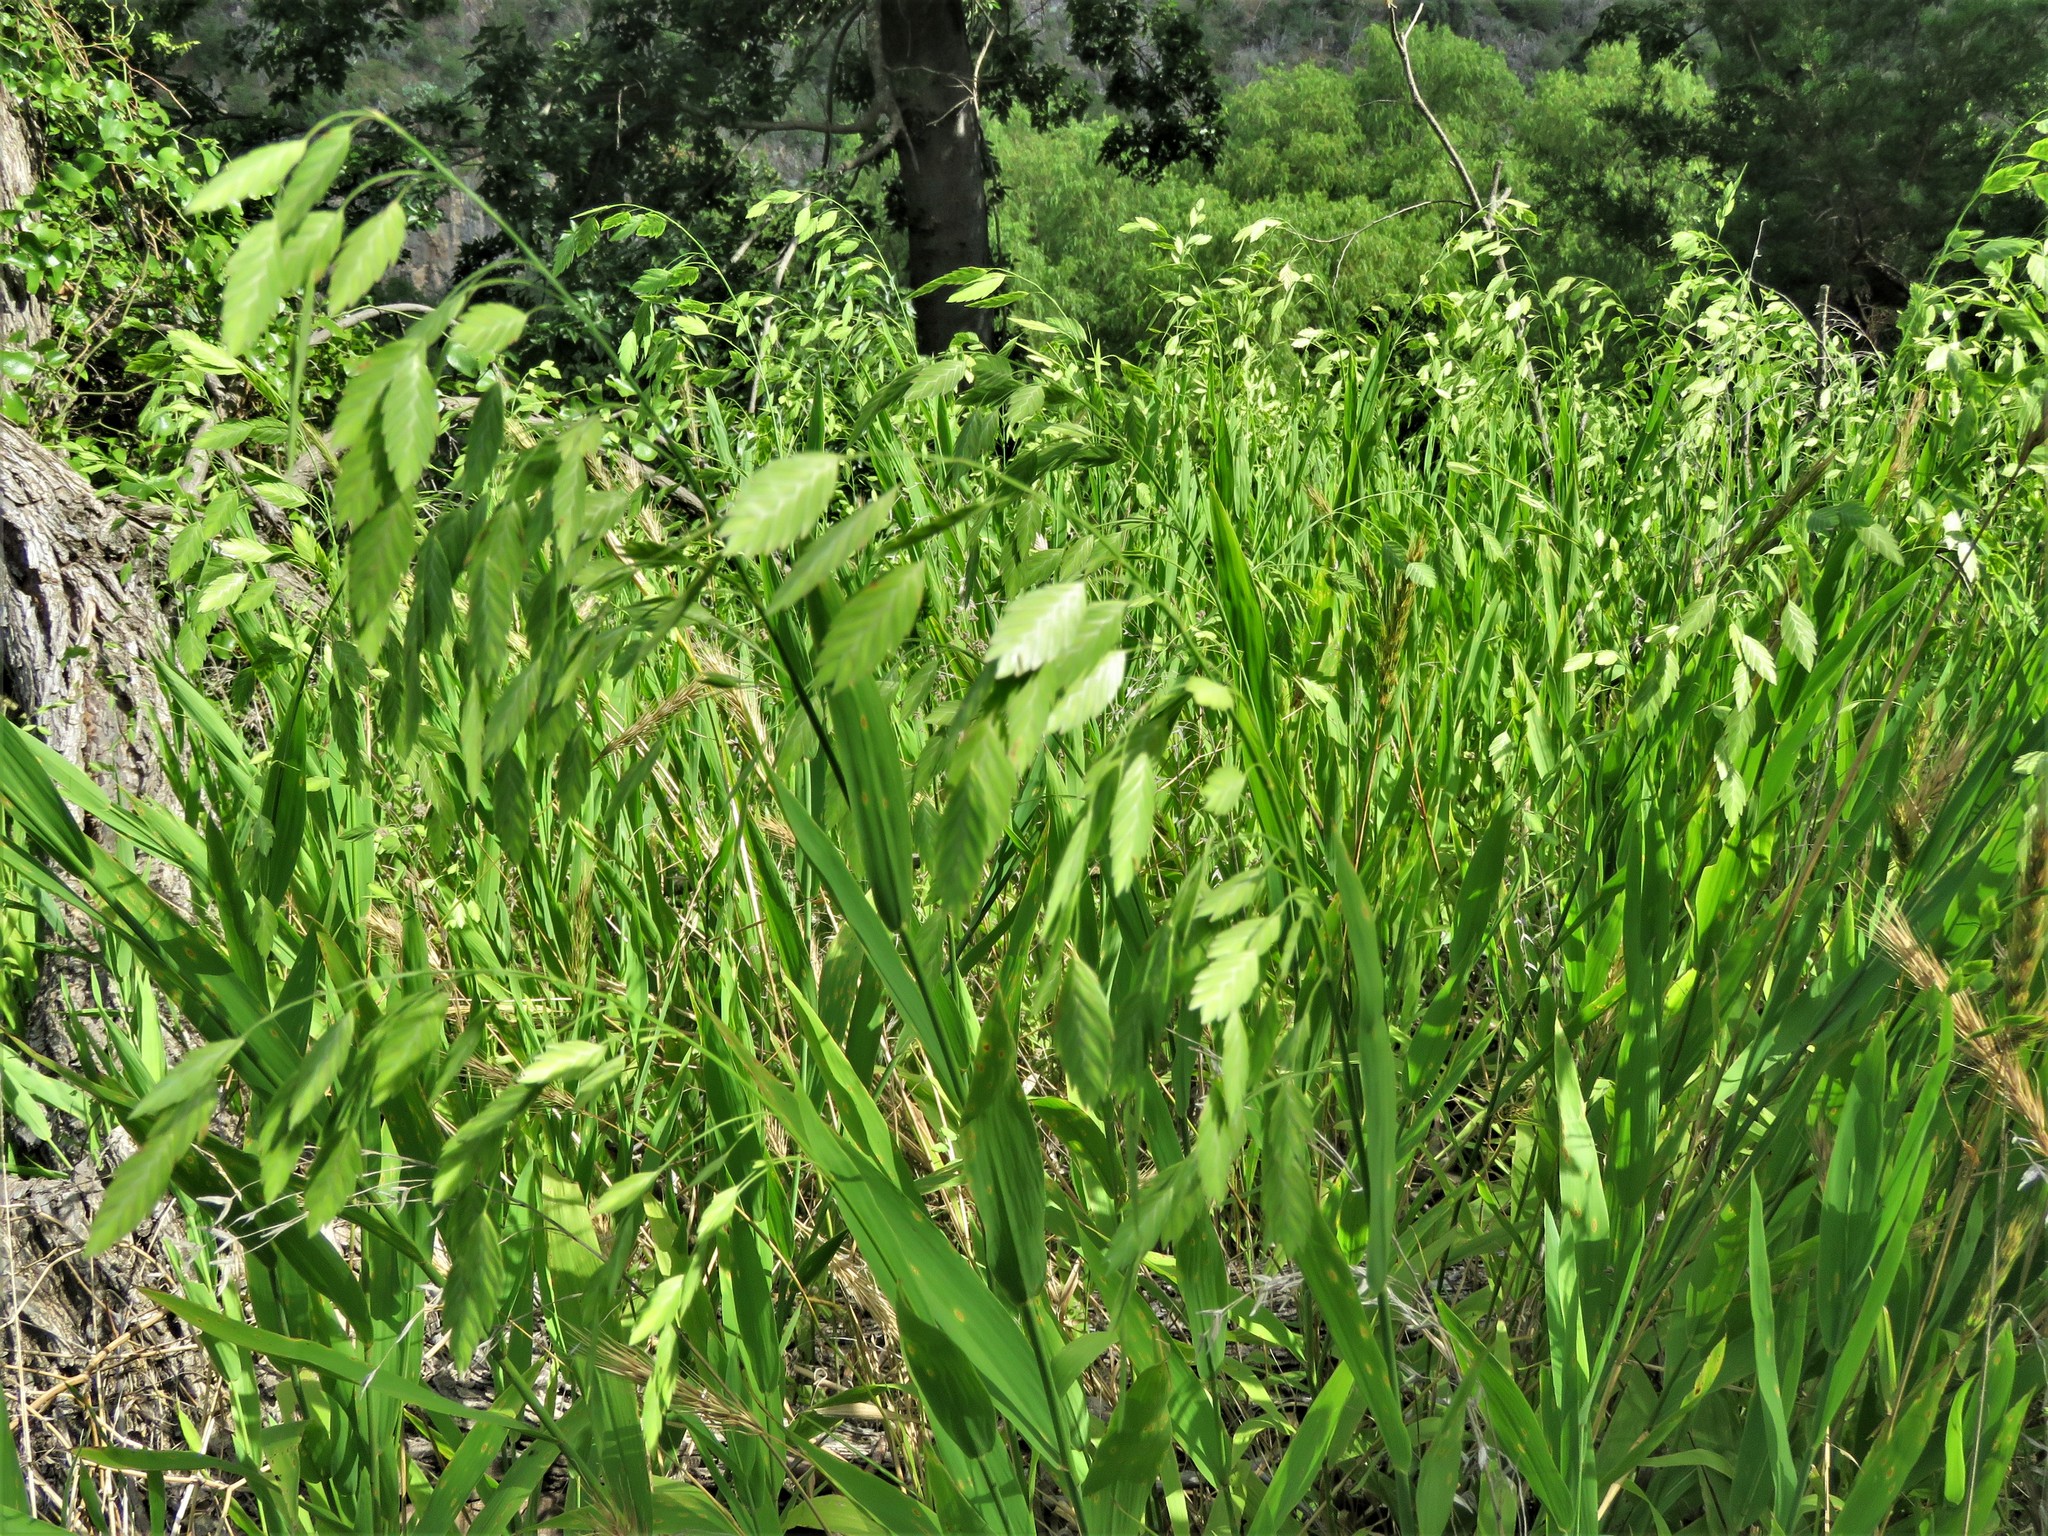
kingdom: Plantae
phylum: Tracheophyta
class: Liliopsida
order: Poales
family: Poaceae
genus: Chasmanthium
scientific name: Chasmanthium latifolium
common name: Broad-leaved chasmanthium
